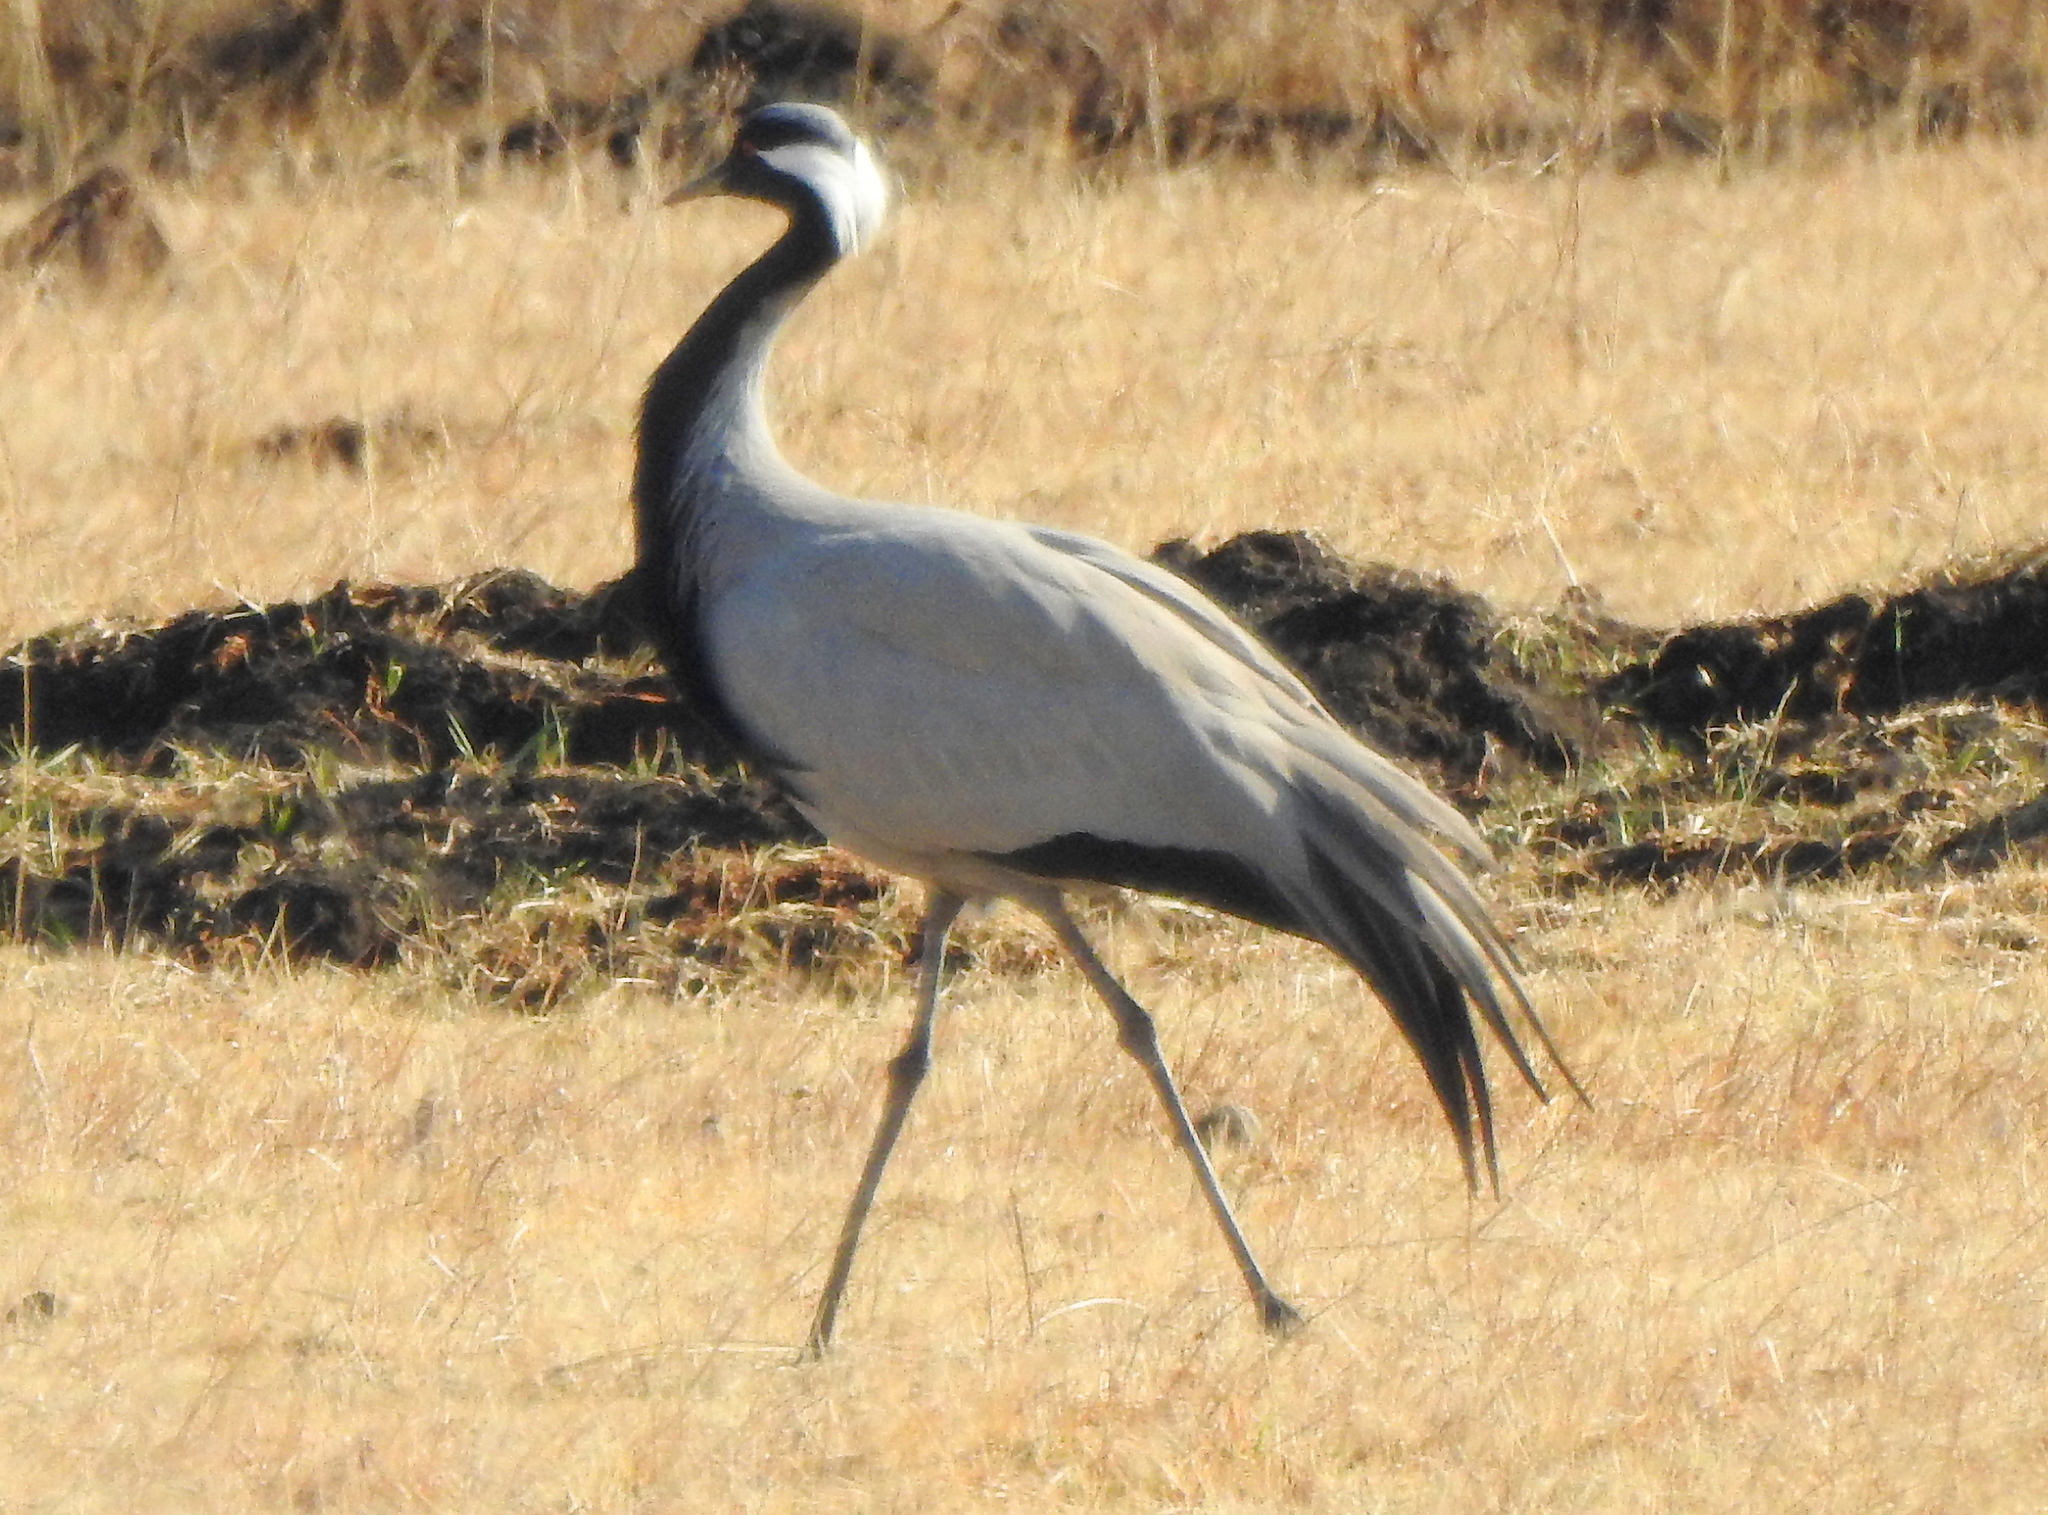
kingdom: Animalia
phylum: Chordata
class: Aves
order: Gruiformes
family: Gruidae
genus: Anthropoides
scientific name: Anthropoides virgo
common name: Demoiselle crane
